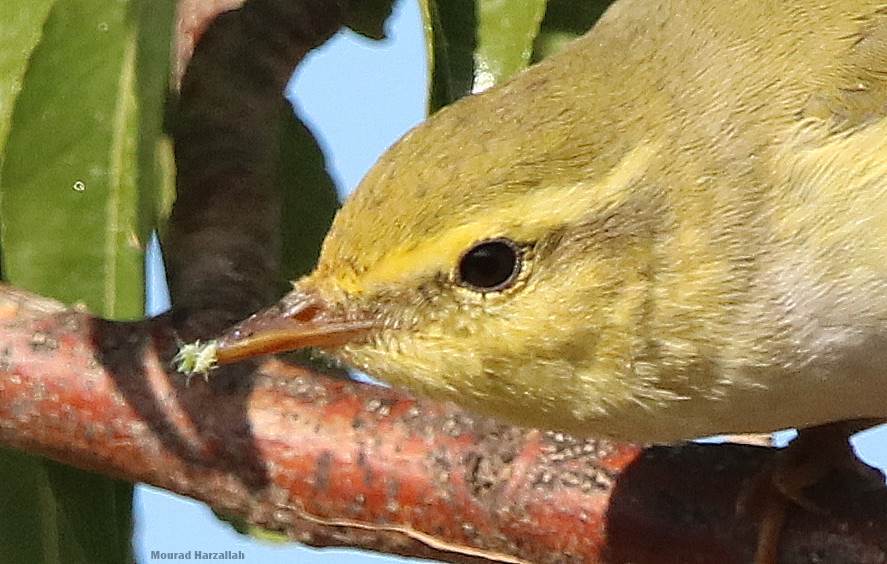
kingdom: Animalia
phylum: Chordata
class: Aves
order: Passeriformes
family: Phylloscopidae
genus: Phylloscopus
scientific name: Phylloscopus sibillatrix
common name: Wood warbler
